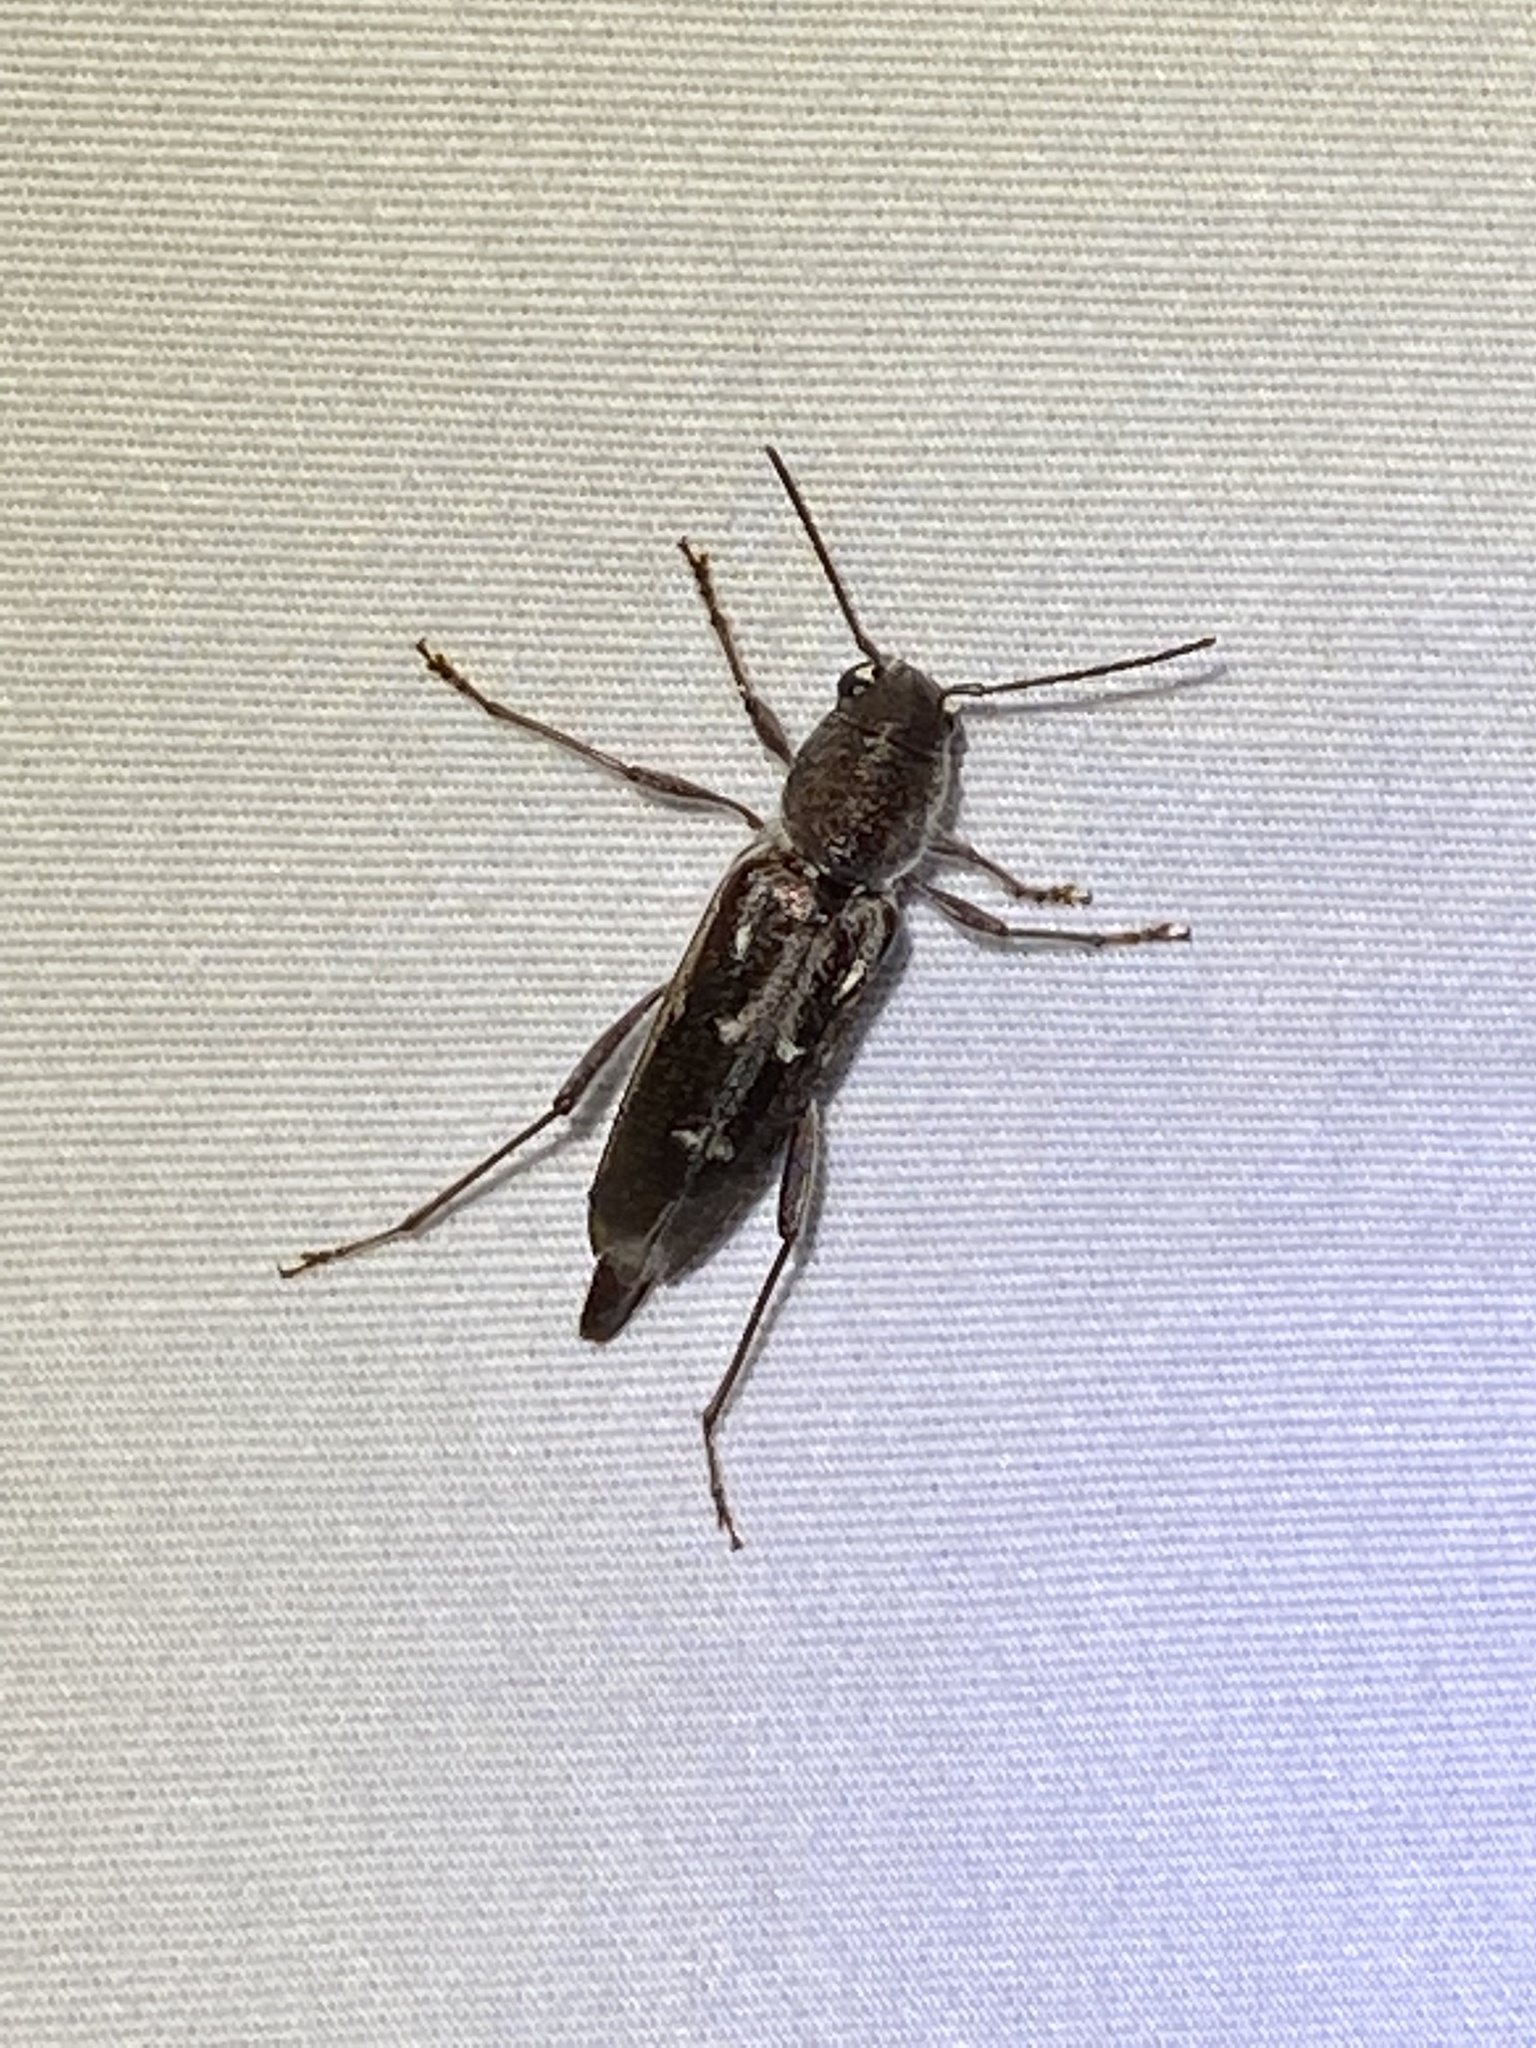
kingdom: Animalia
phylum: Arthropoda
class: Insecta
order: Coleoptera
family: Cerambycidae
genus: Xylotrechus
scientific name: Xylotrechus sagittatus
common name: Arrowhead borer
